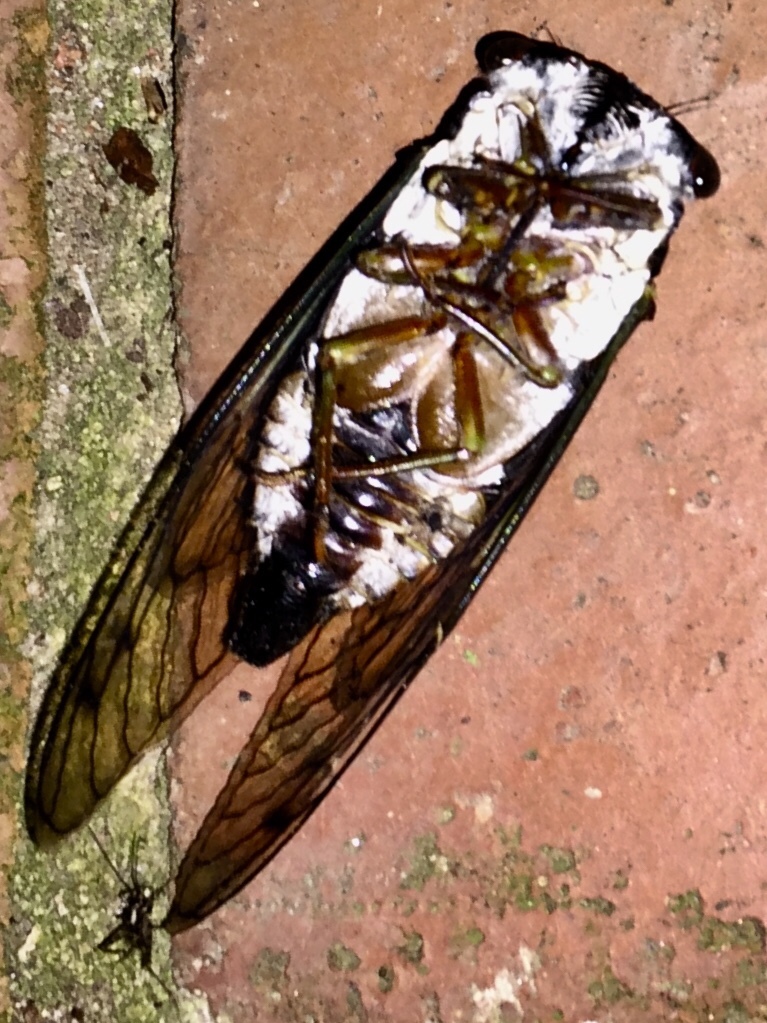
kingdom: Animalia
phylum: Arthropoda
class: Insecta
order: Hemiptera
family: Cicadidae
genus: Neotibicen
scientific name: Neotibicen lyricen
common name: Lyric cicada
